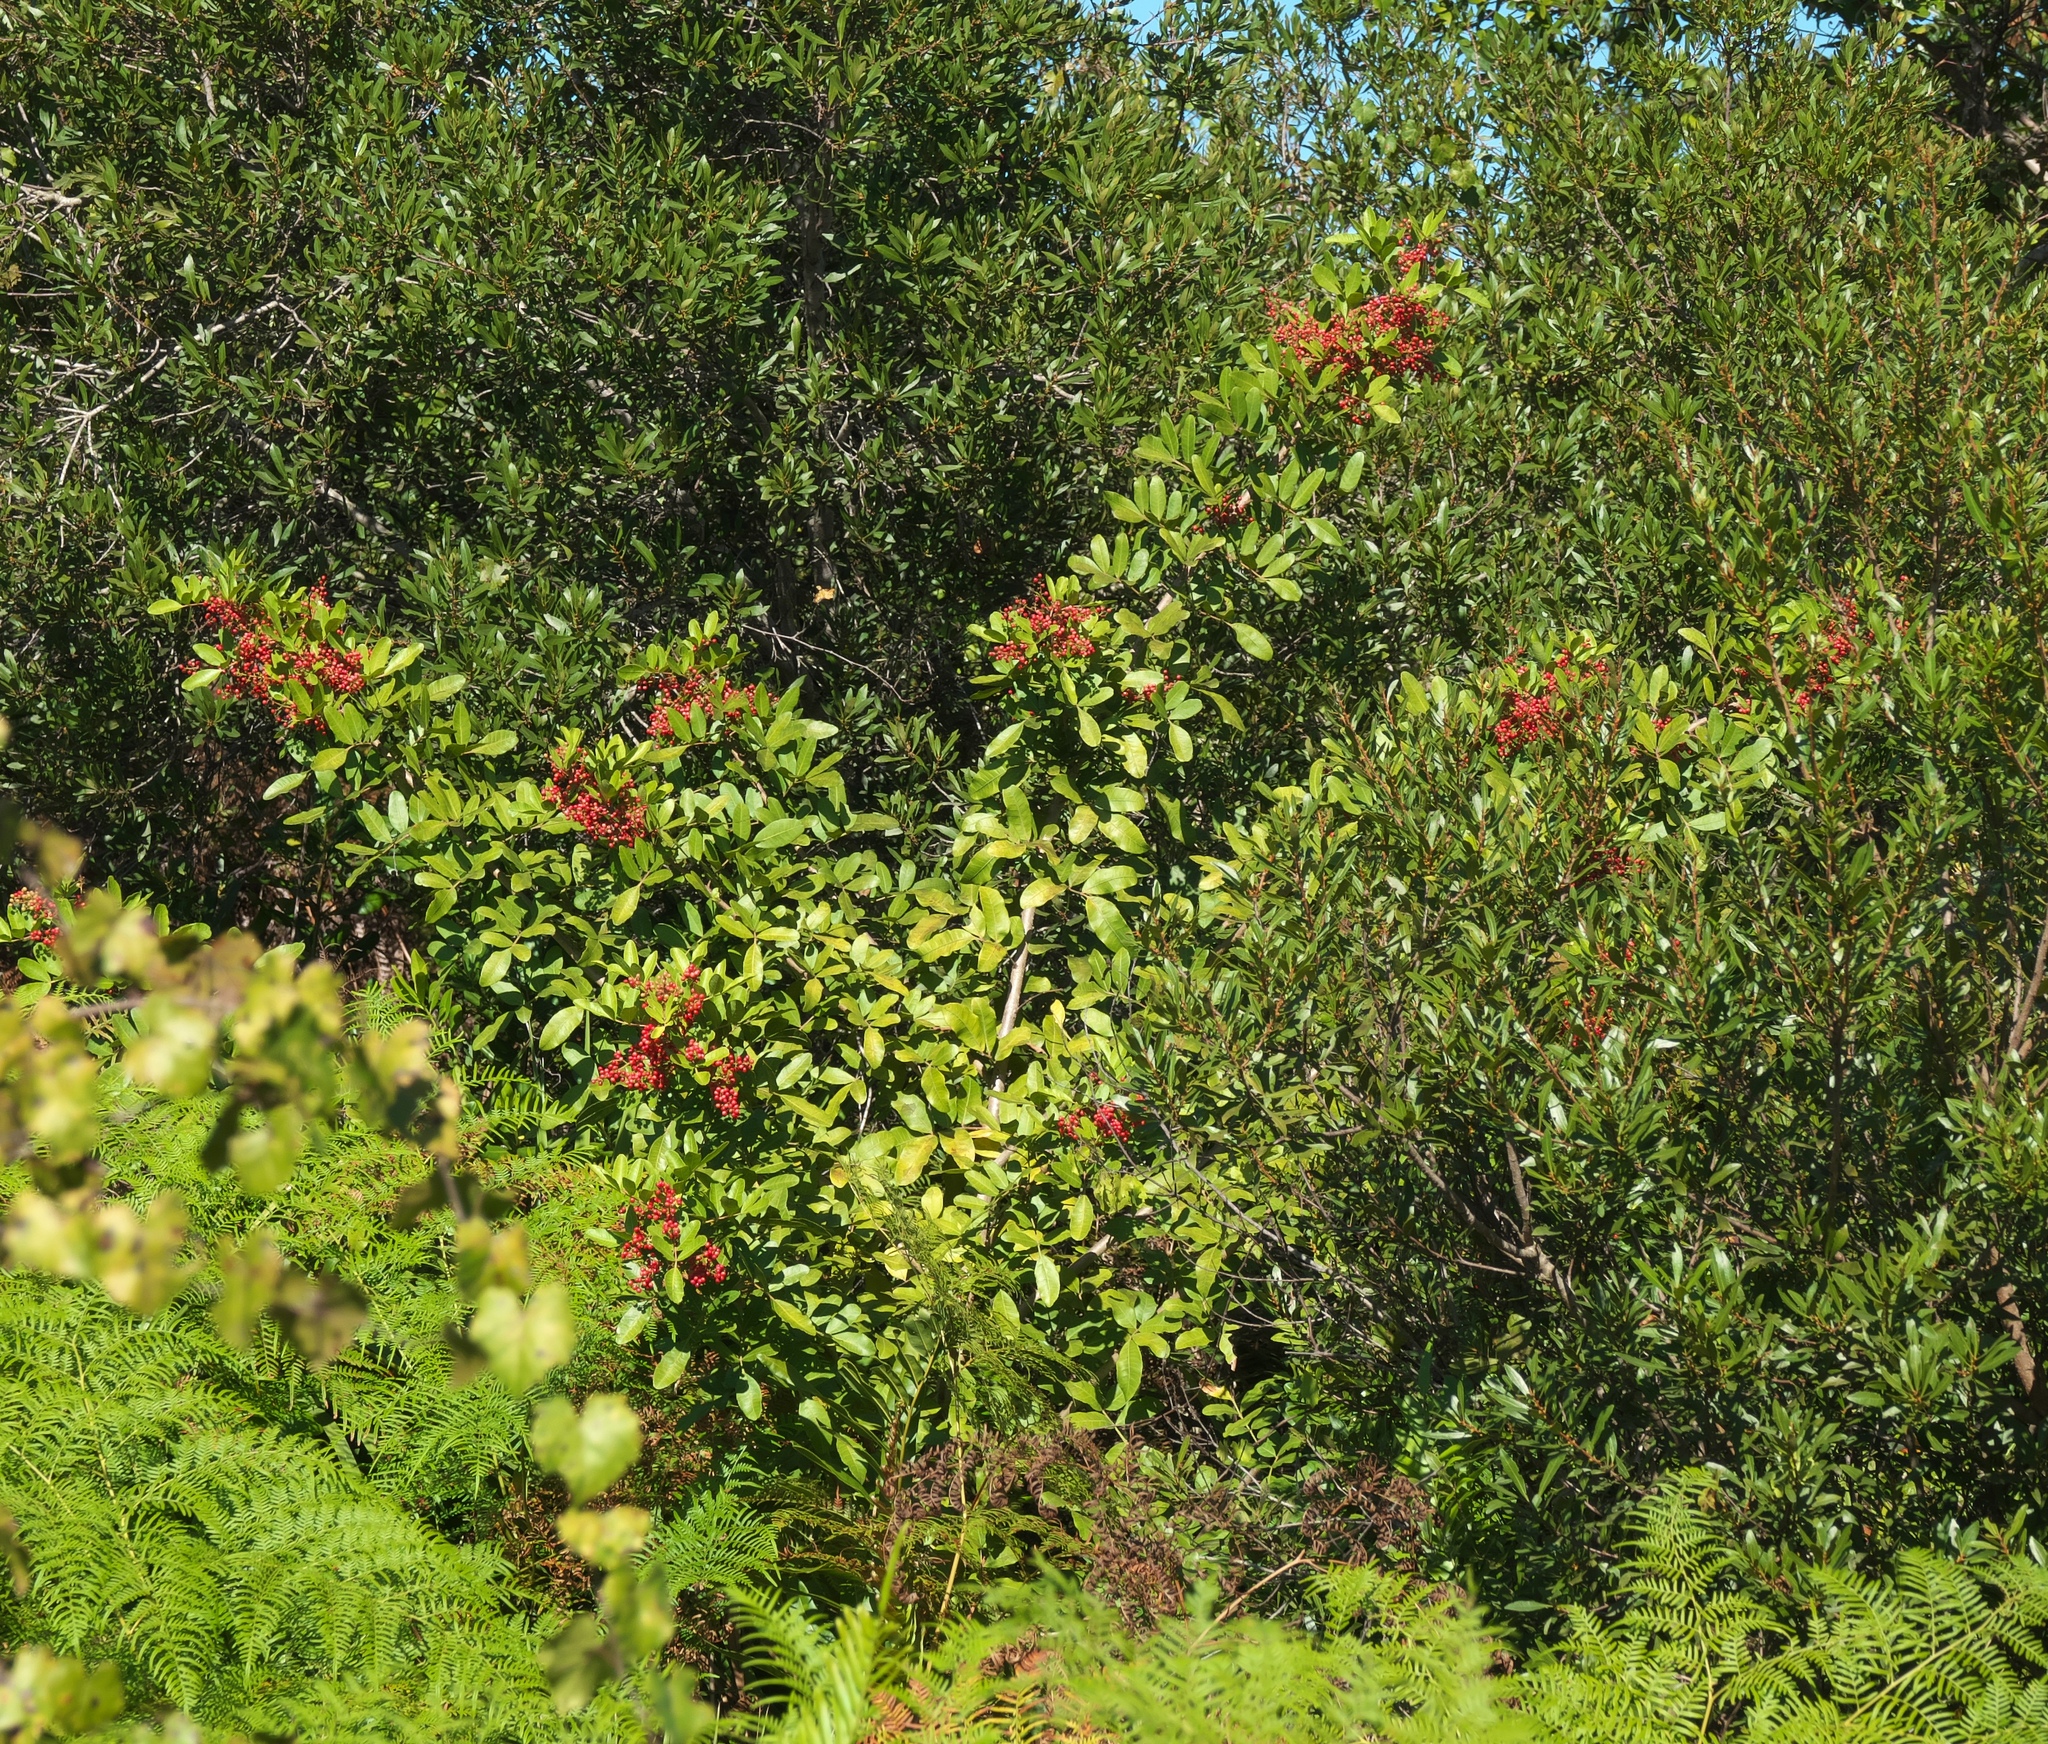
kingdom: Plantae
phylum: Tracheophyta
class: Magnoliopsida
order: Sapindales
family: Anacardiaceae
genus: Schinus
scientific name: Schinus terebinthifolia
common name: Brazilian peppertree
